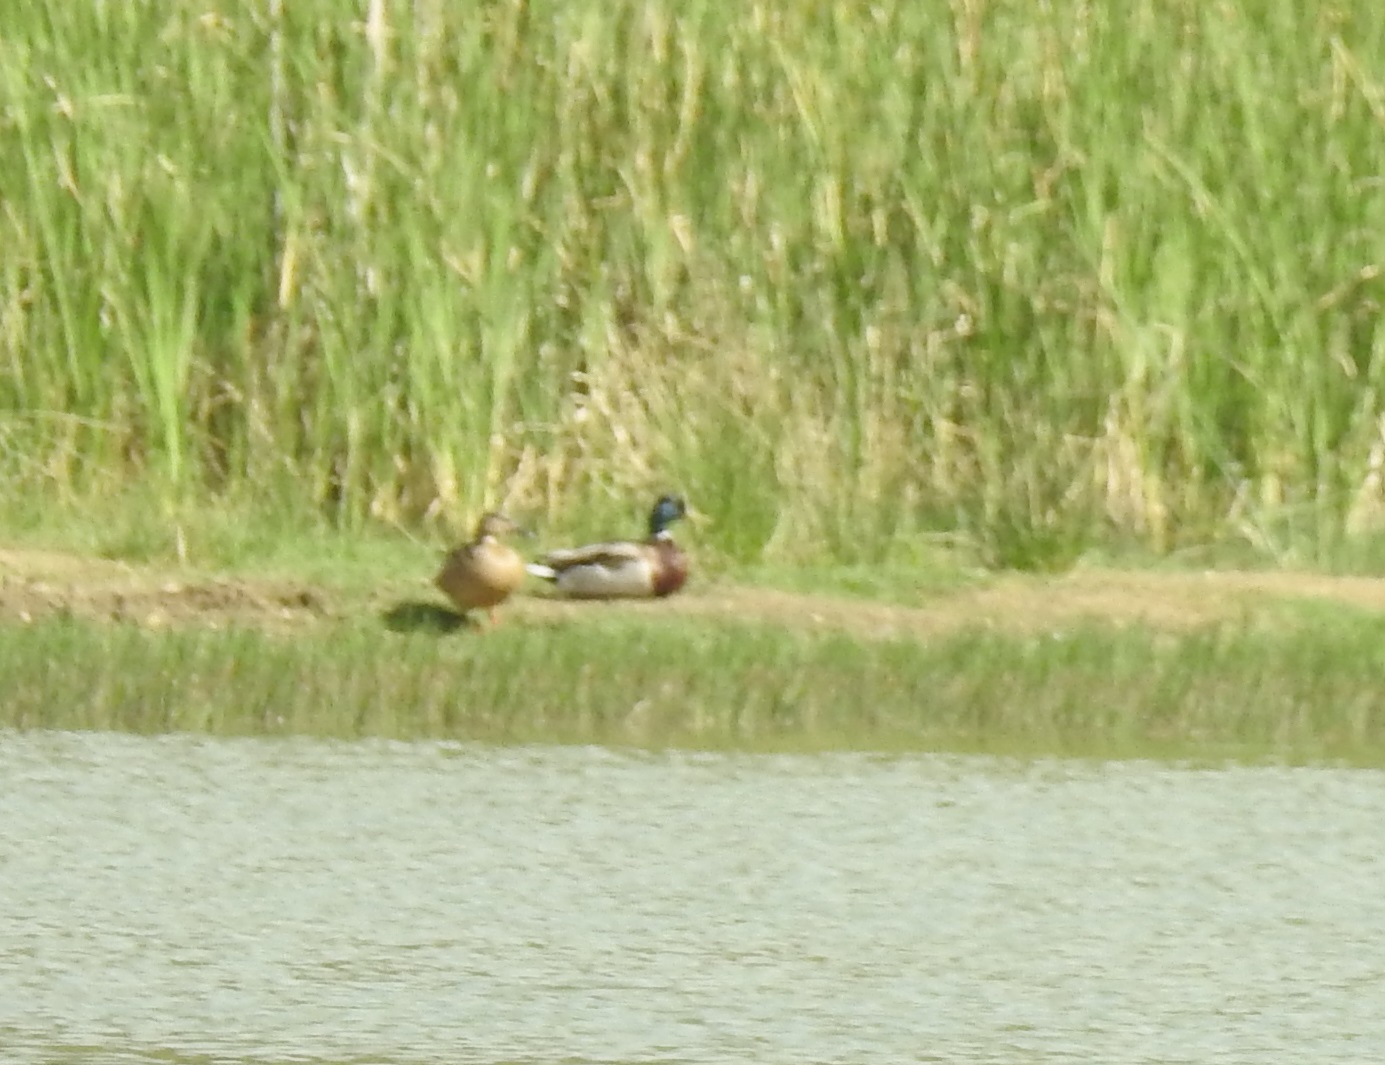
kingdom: Animalia
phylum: Chordata
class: Aves
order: Anseriformes
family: Anatidae
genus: Anas
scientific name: Anas platyrhynchos
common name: Mallard
